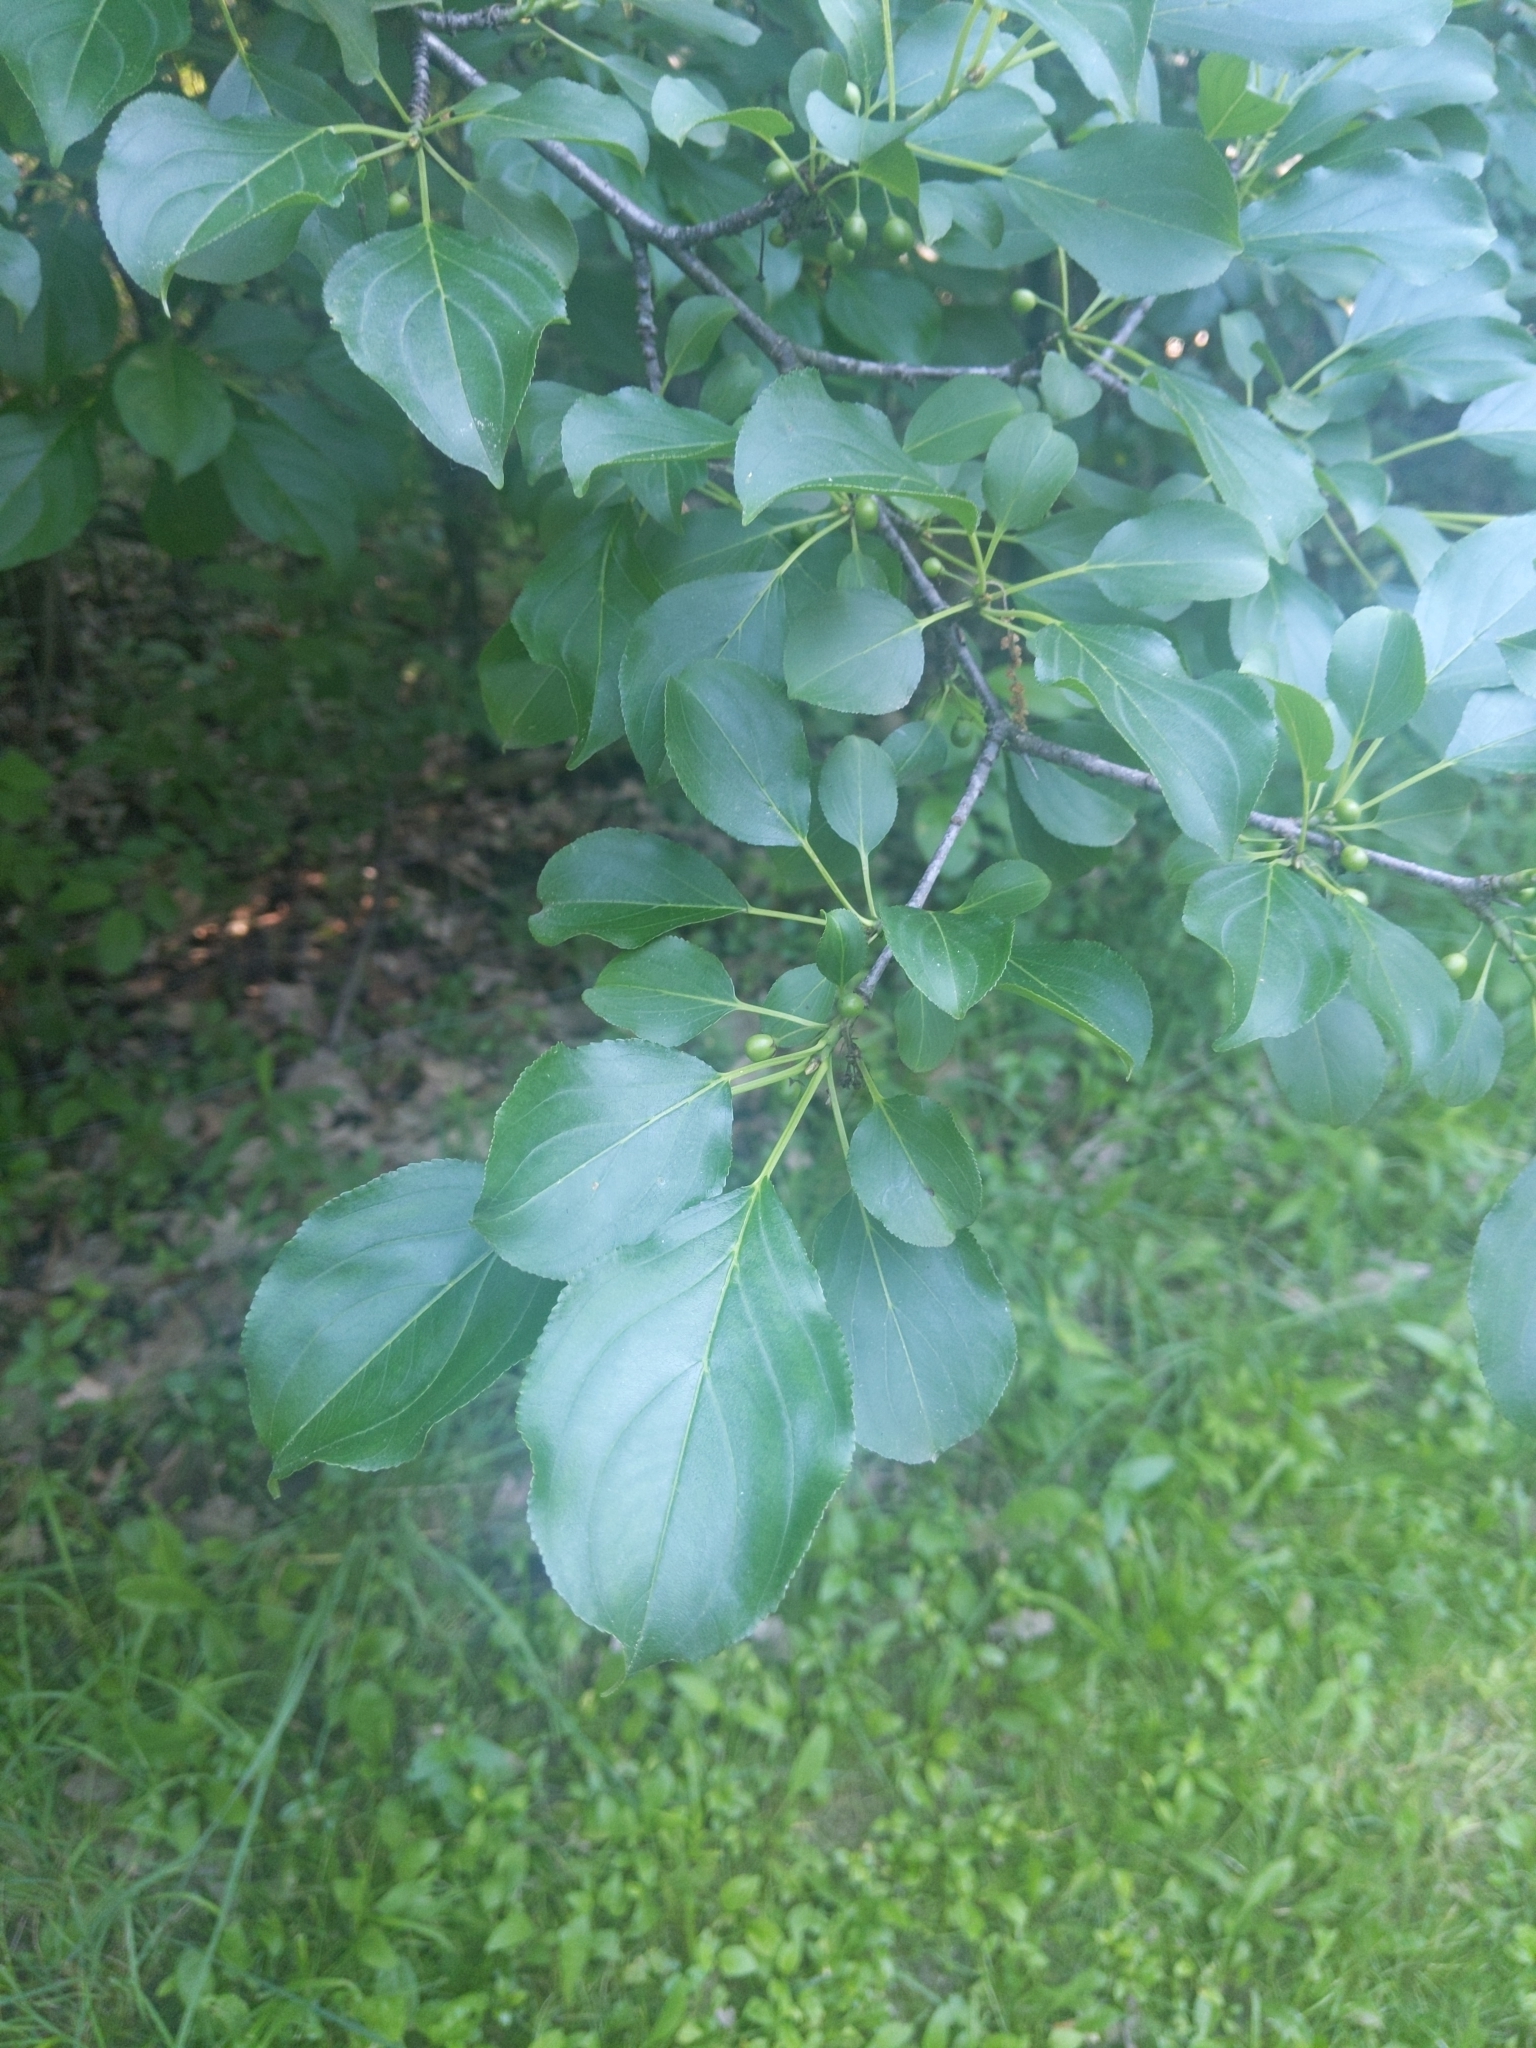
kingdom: Plantae
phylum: Tracheophyta
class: Magnoliopsida
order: Rosales
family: Rhamnaceae
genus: Rhamnus
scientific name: Rhamnus cathartica
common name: Common buckthorn
